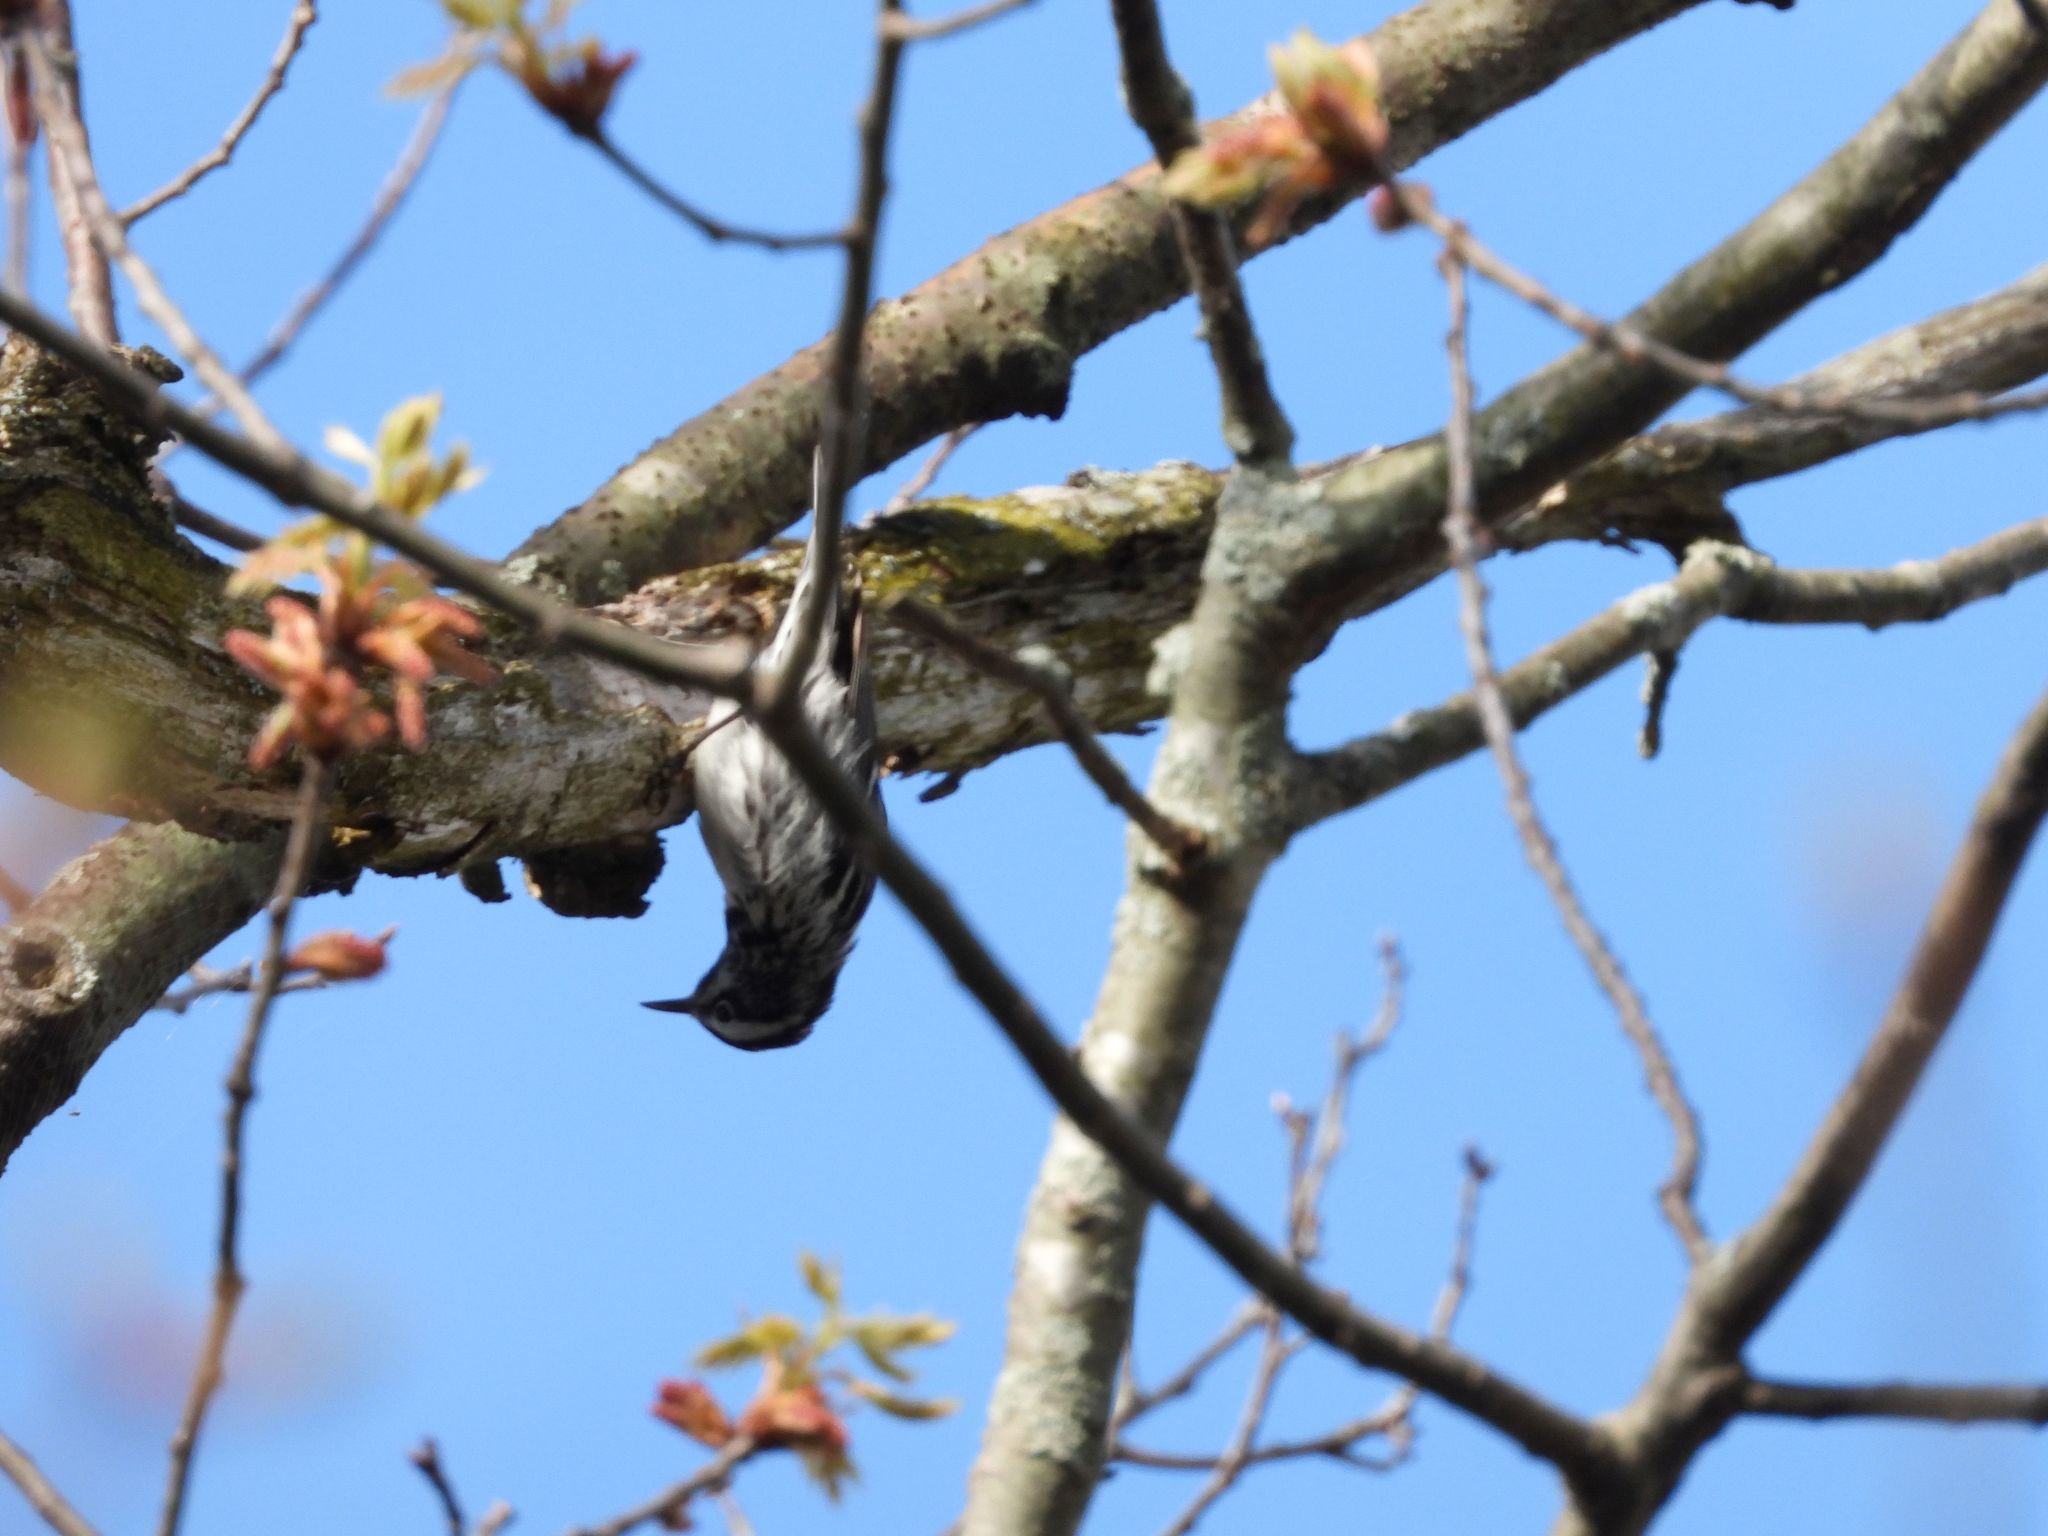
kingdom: Animalia
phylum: Chordata
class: Aves
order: Passeriformes
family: Parulidae
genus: Mniotilta
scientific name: Mniotilta varia
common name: Black-and-white warbler
